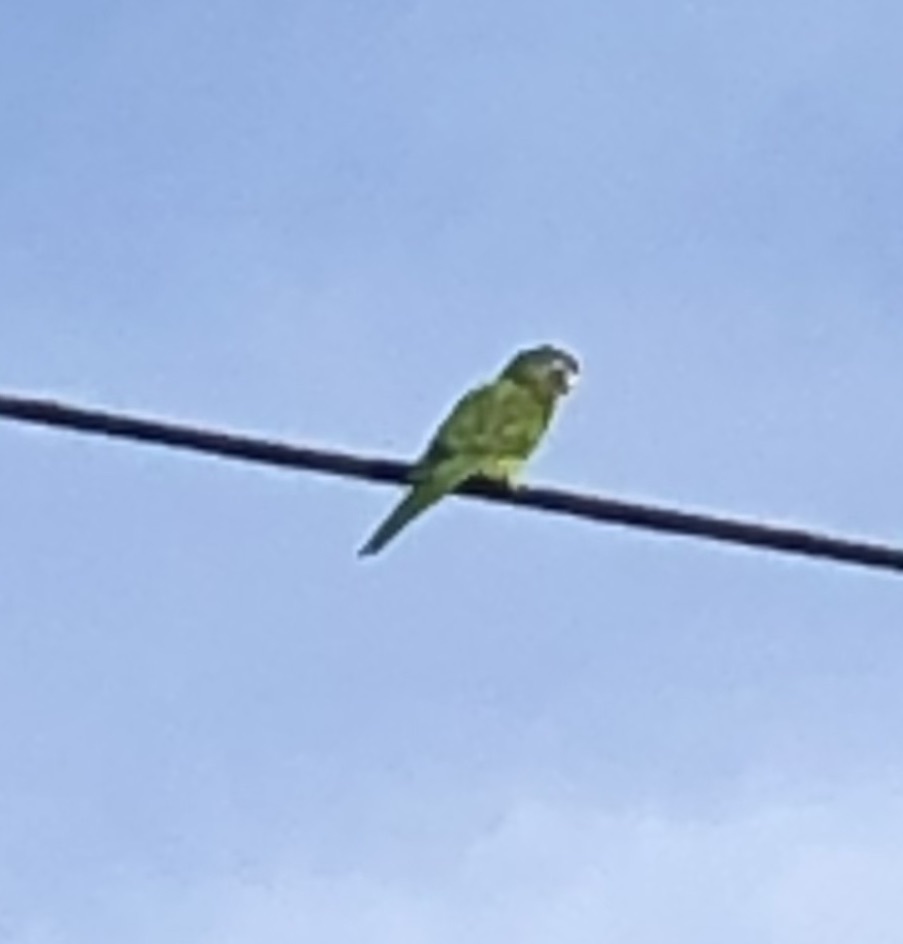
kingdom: Animalia
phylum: Chordata
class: Aves
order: Psittaciformes
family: Psittacidae
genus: Aratinga
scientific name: Aratinga acuticaudata
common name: Blue-crowned parakeet
